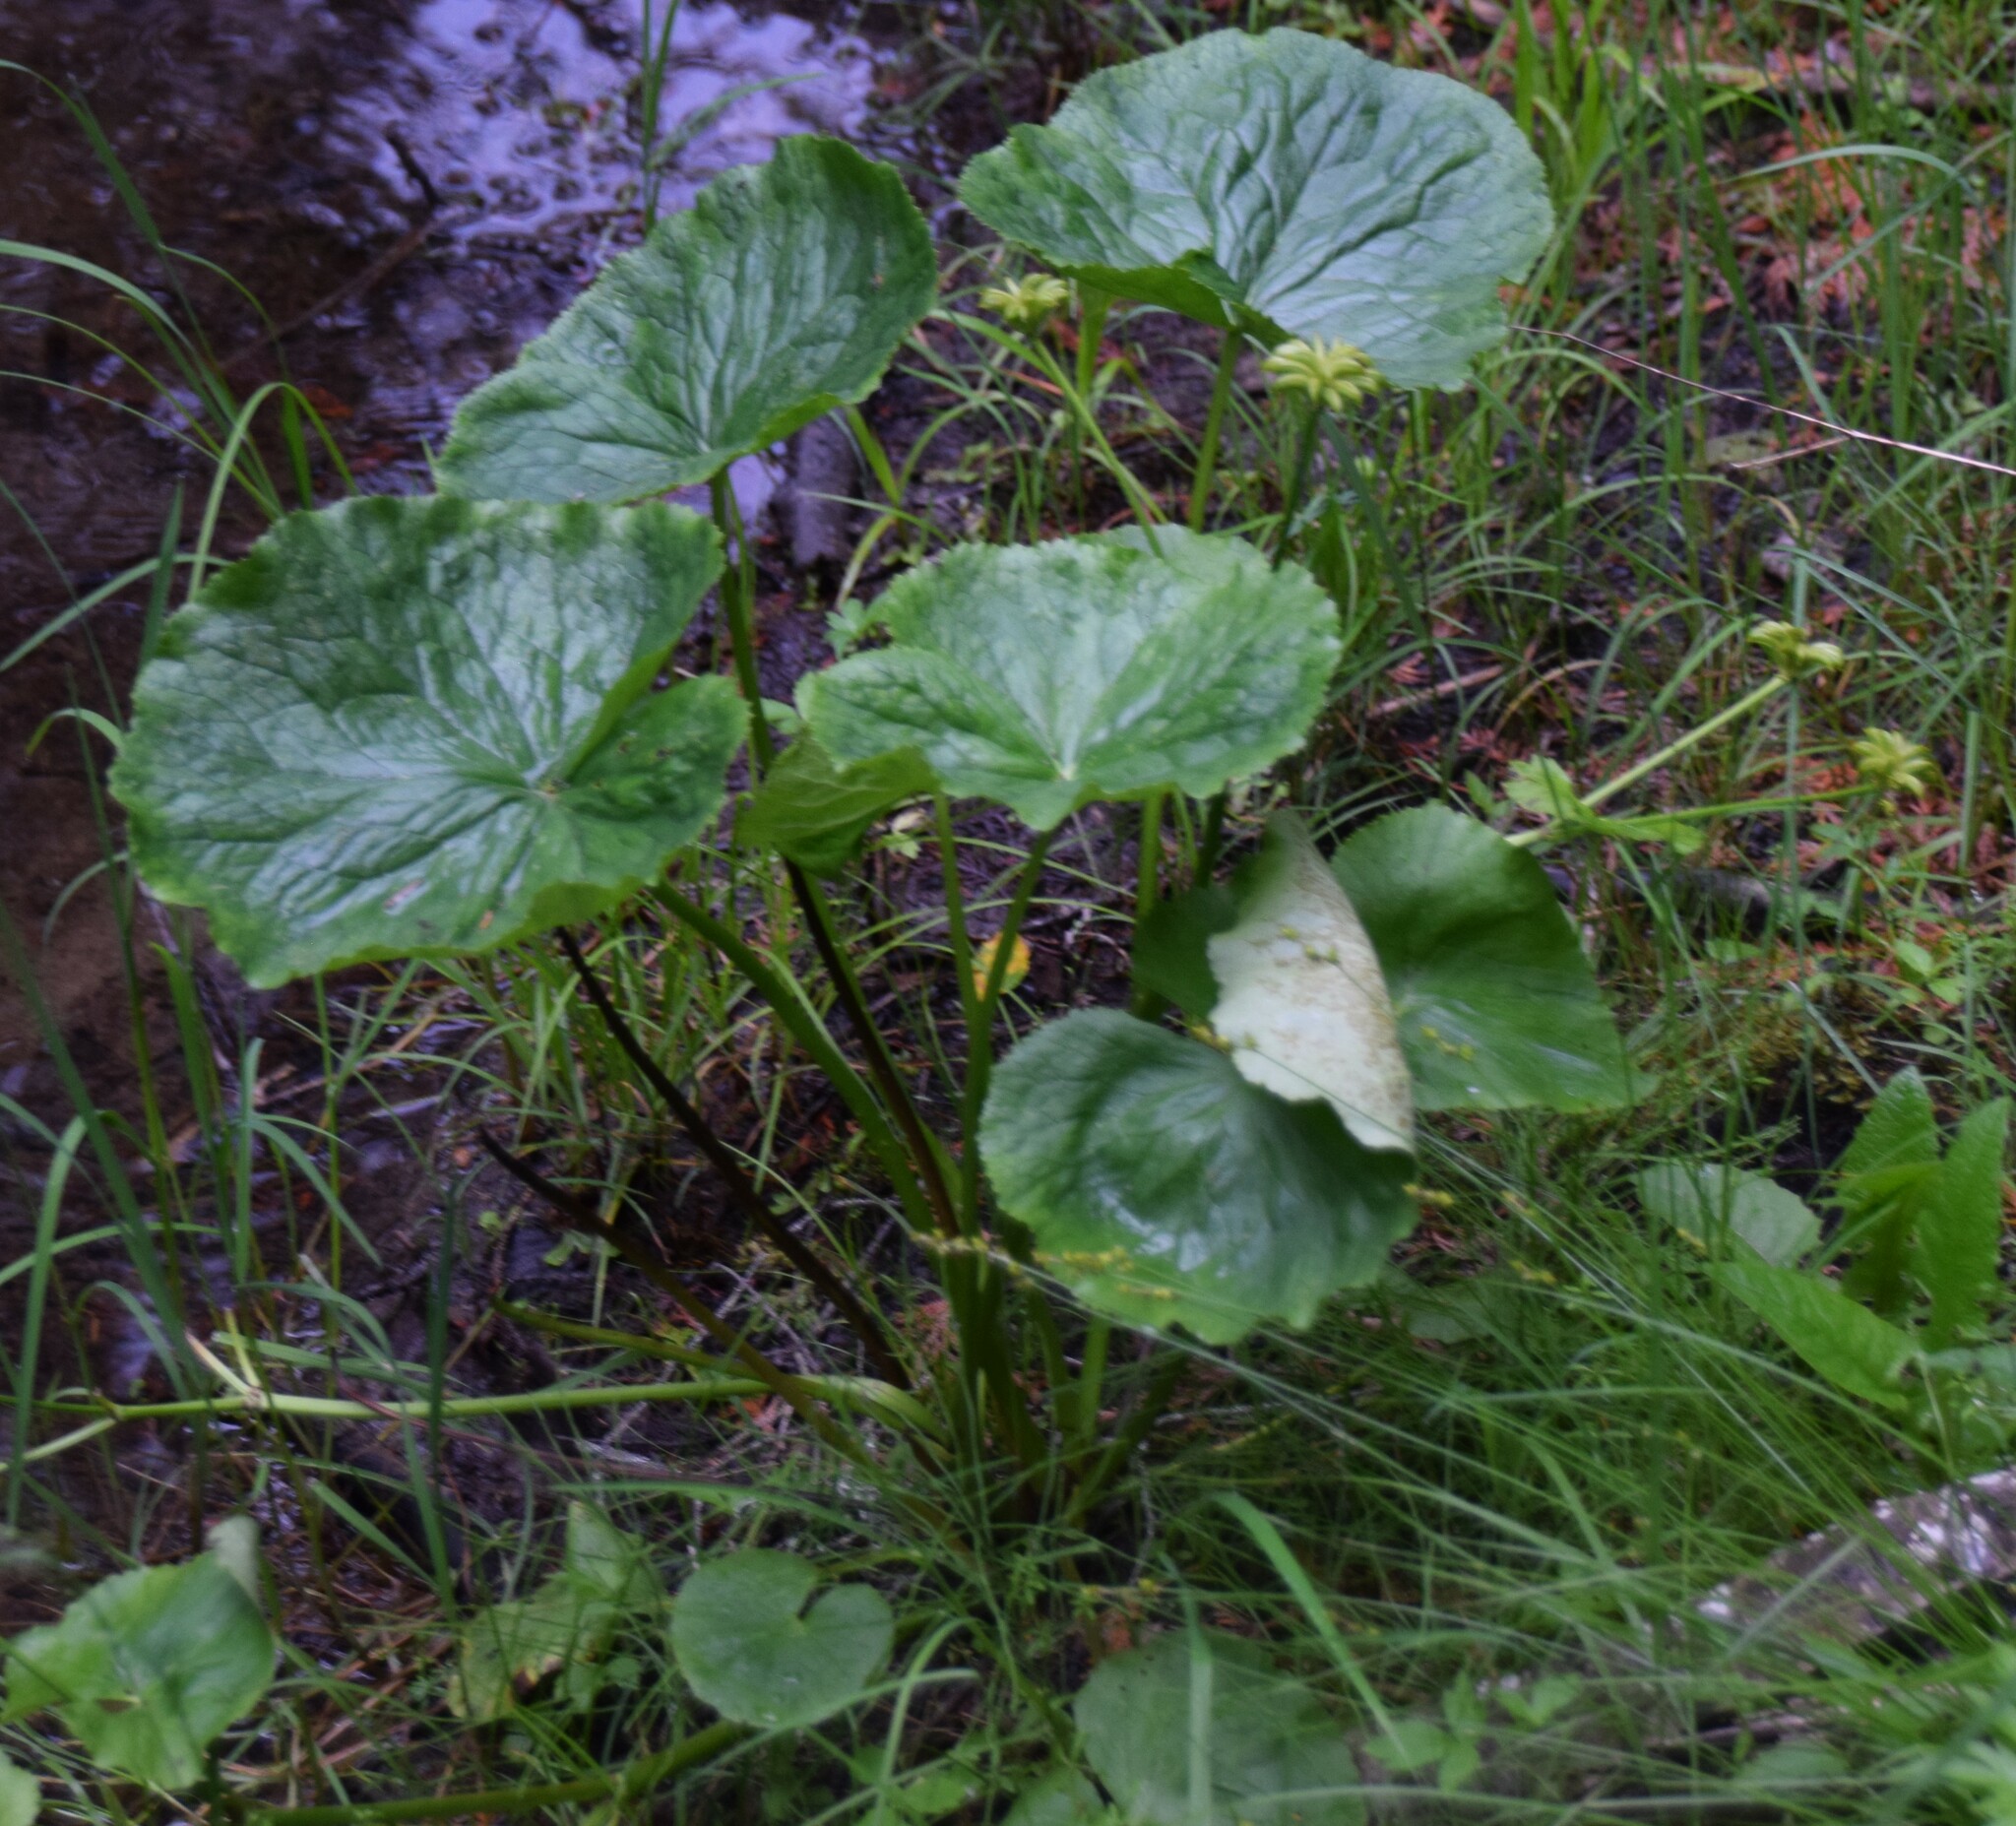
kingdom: Plantae
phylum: Tracheophyta
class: Magnoliopsida
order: Ranunculales
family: Ranunculaceae
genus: Caltha
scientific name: Caltha palustris
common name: Marsh marigold
